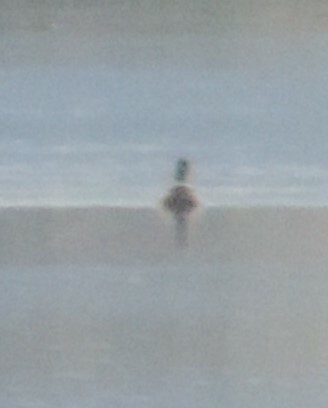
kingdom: Animalia
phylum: Chordata
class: Aves
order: Anseriformes
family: Anatidae
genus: Anas
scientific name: Anas platyrhynchos
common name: Mallard
